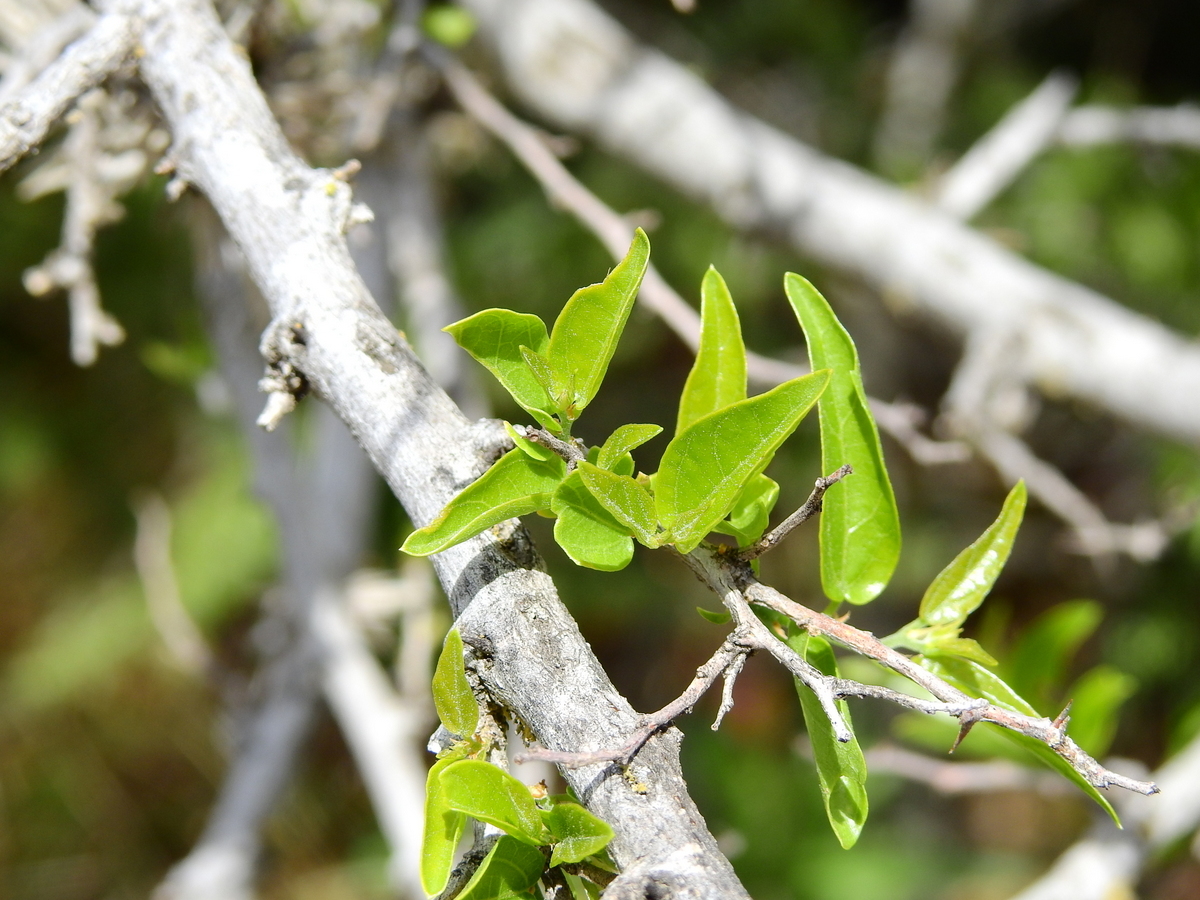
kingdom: Plantae
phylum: Tracheophyta
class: Magnoliopsida
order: Rosales
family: Cannabaceae
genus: Celtis
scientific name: Celtis tala
